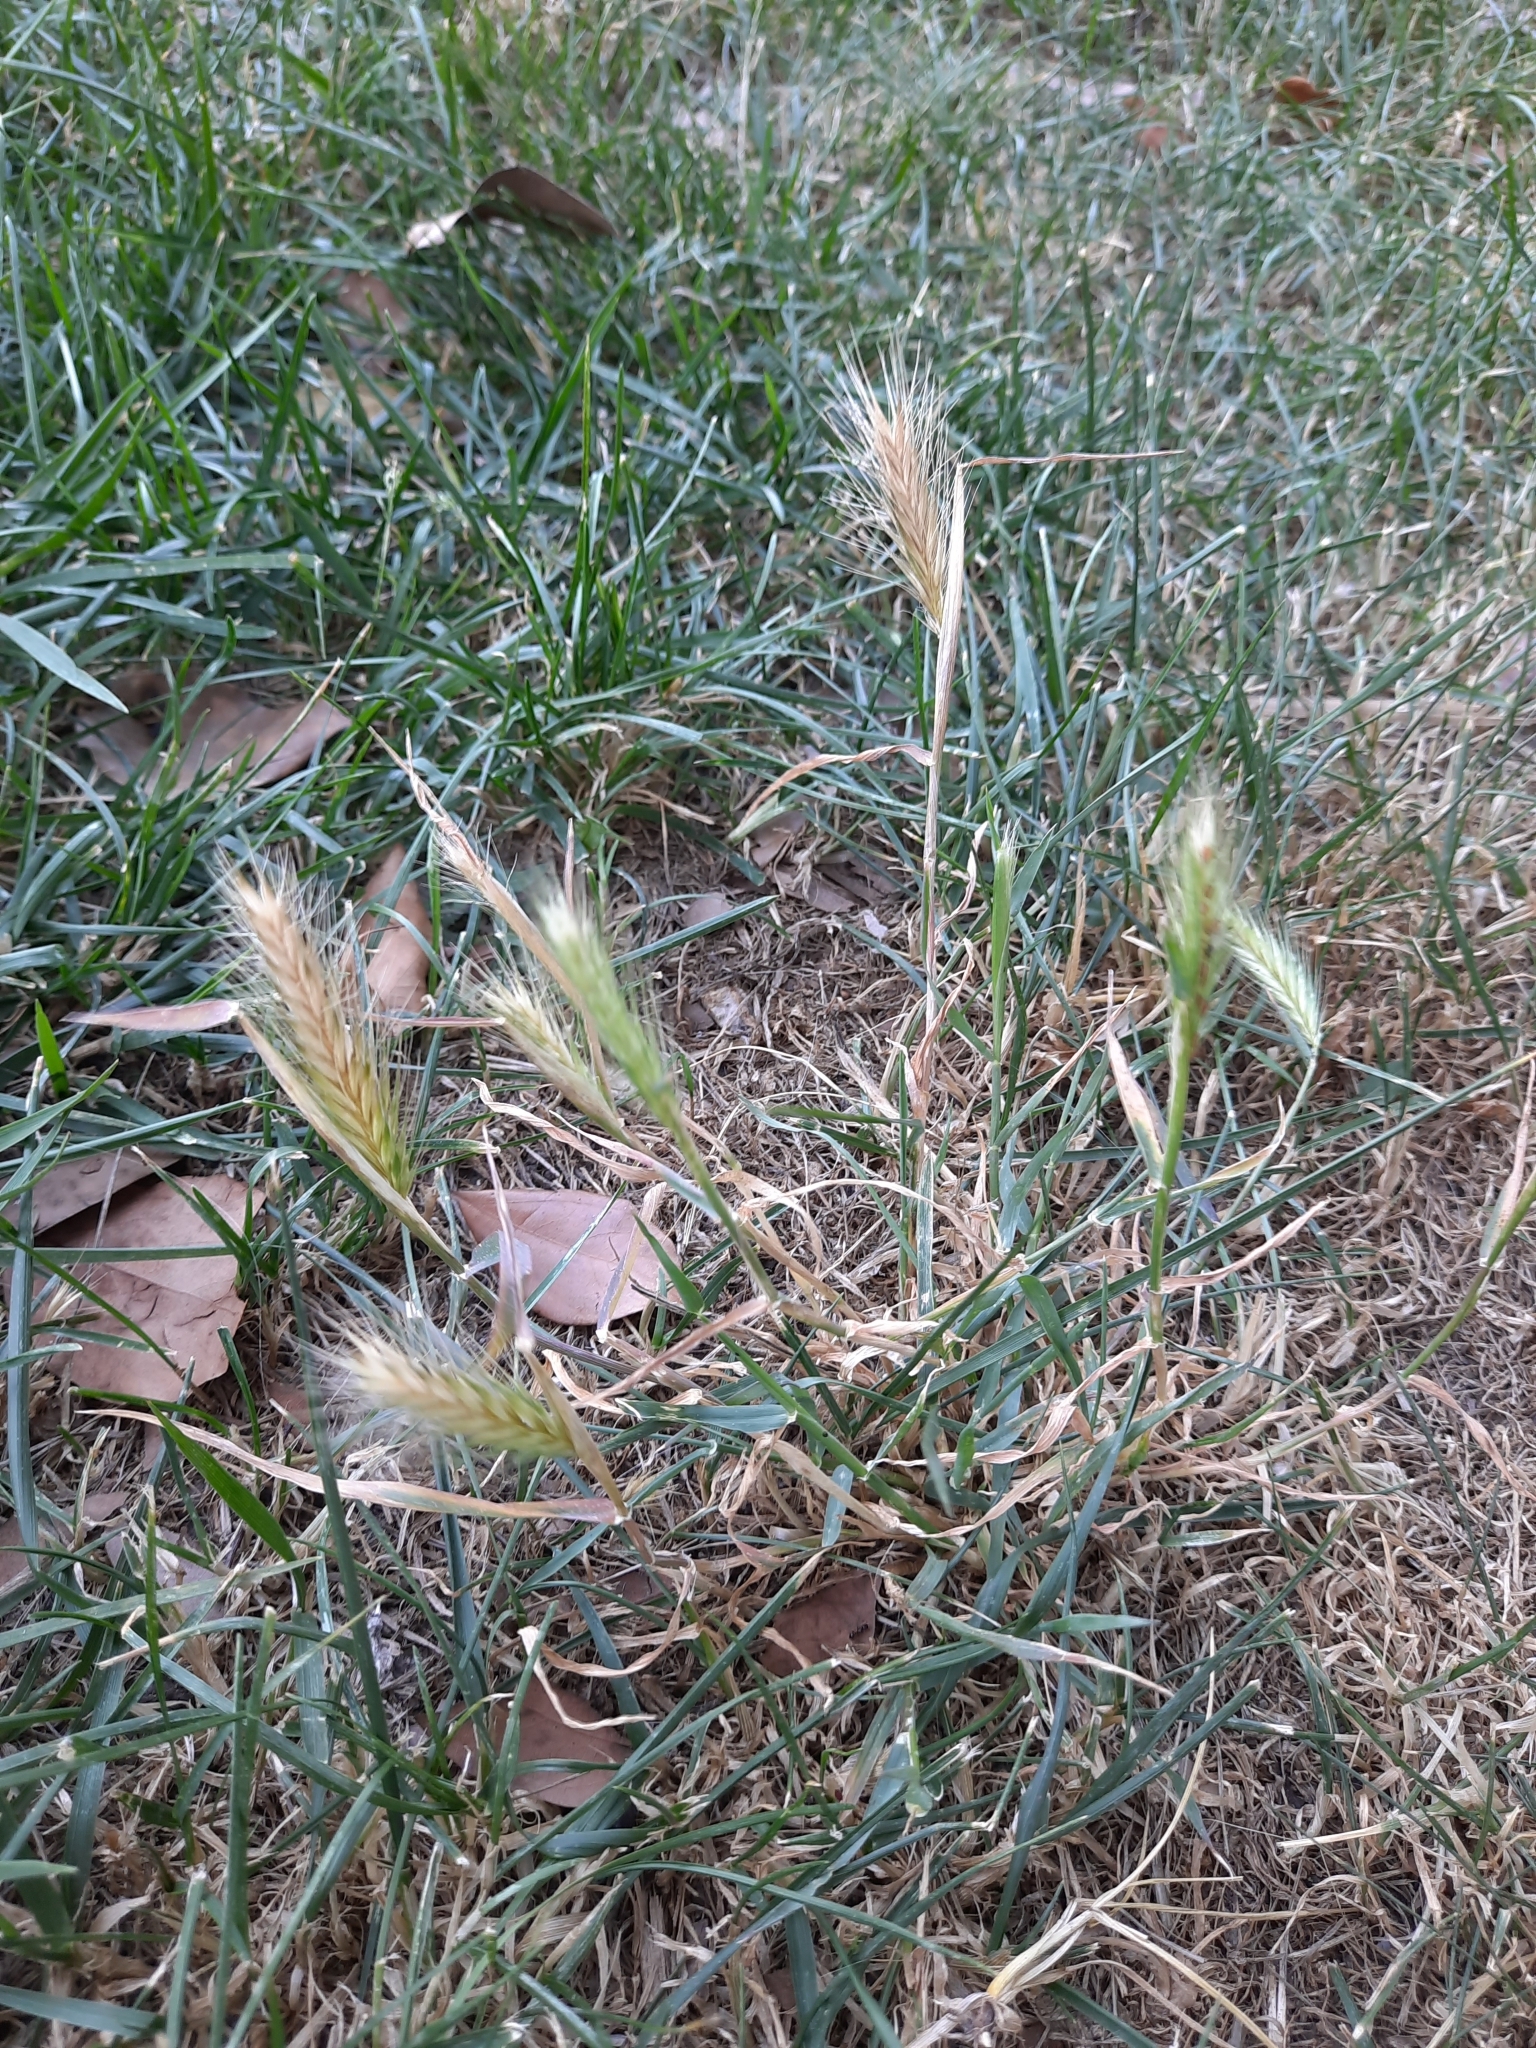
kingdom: Plantae
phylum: Tracheophyta
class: Liliopsida
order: Poales
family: Poaceae
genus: Hordeum
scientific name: Hordeum murinum
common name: Wall barley
